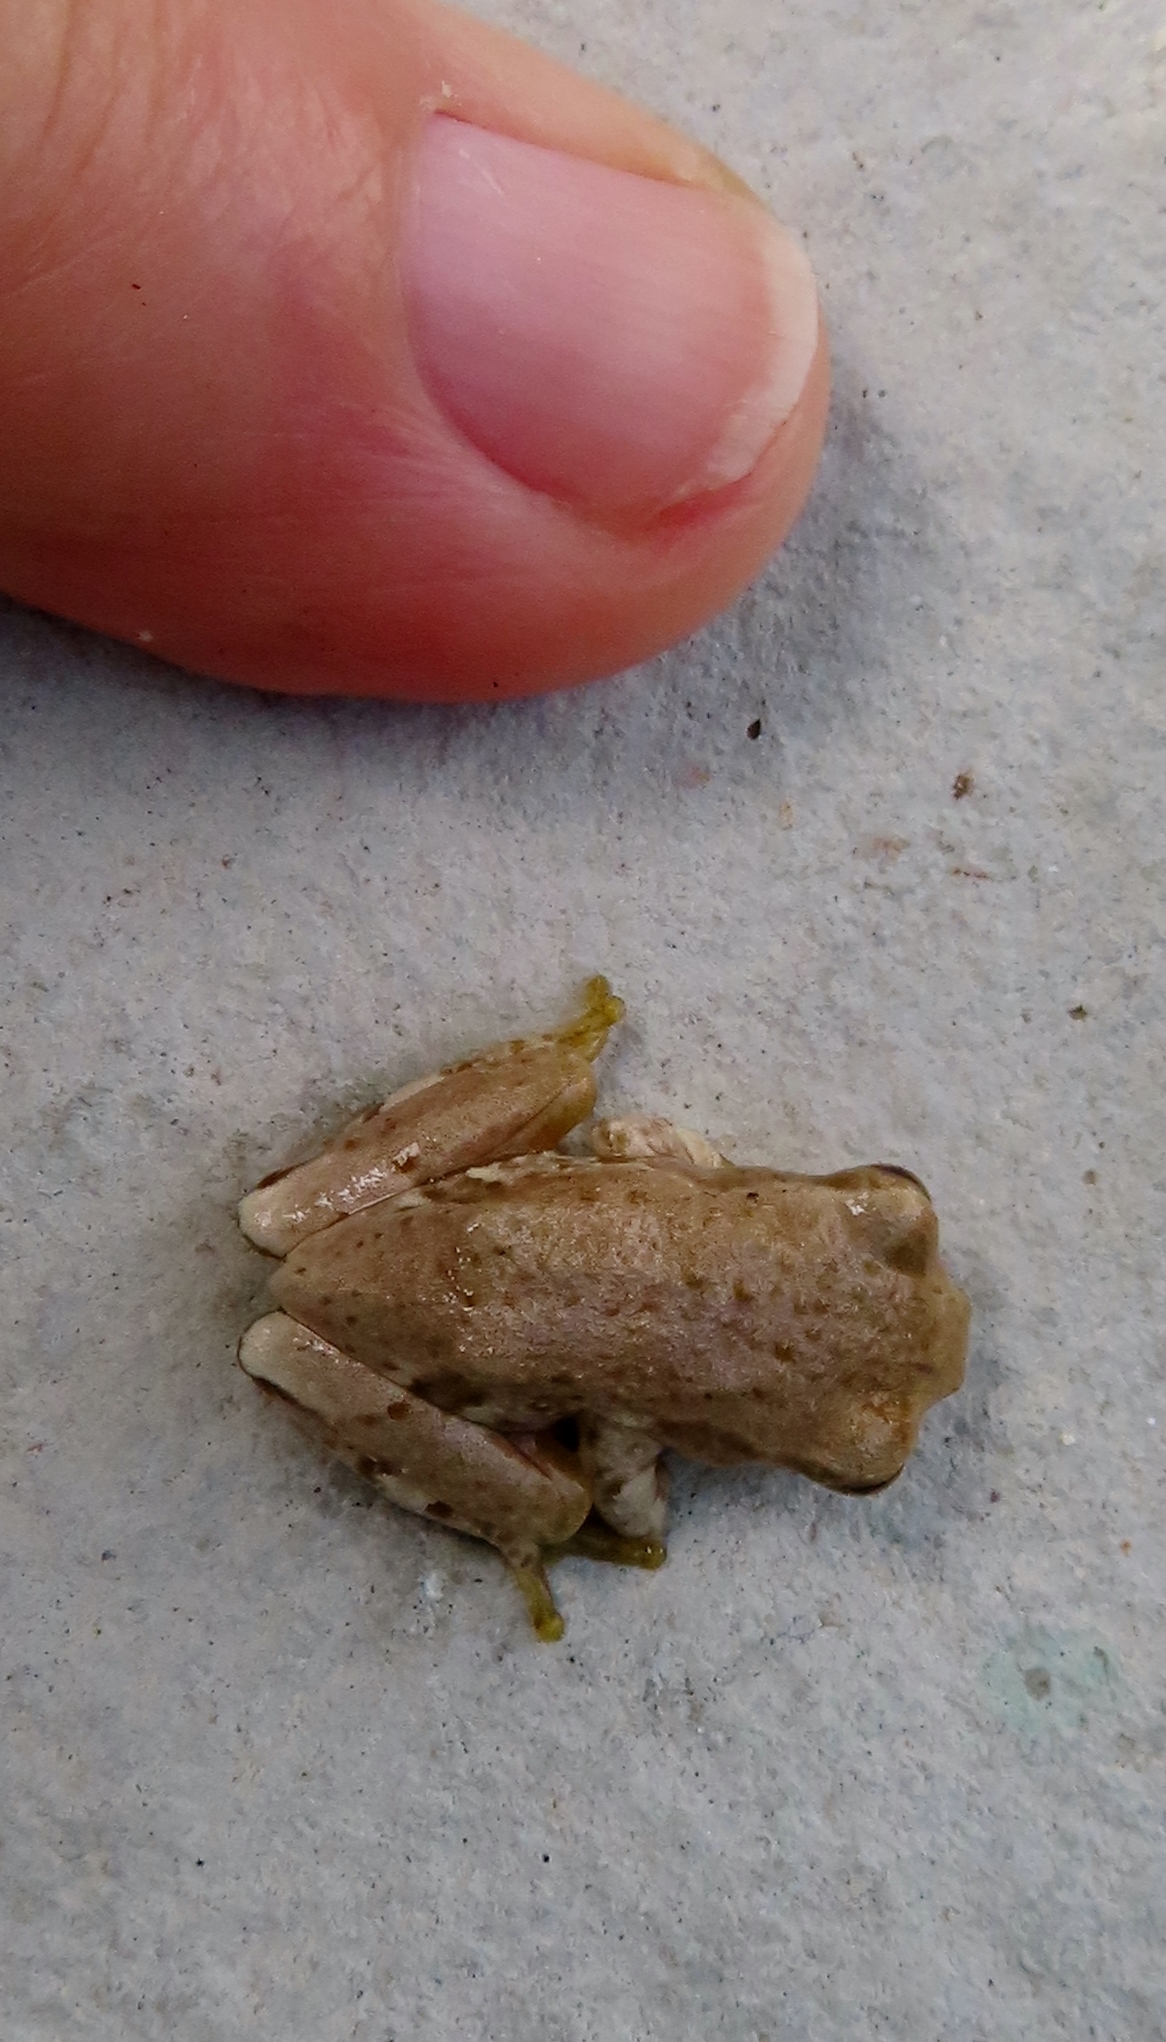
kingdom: Animalia
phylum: Chordata
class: Amphibia
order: Anura
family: Hyperoliidae
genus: Hyperolius
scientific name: Hyperolius marmoratus
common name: Painted reed frog
